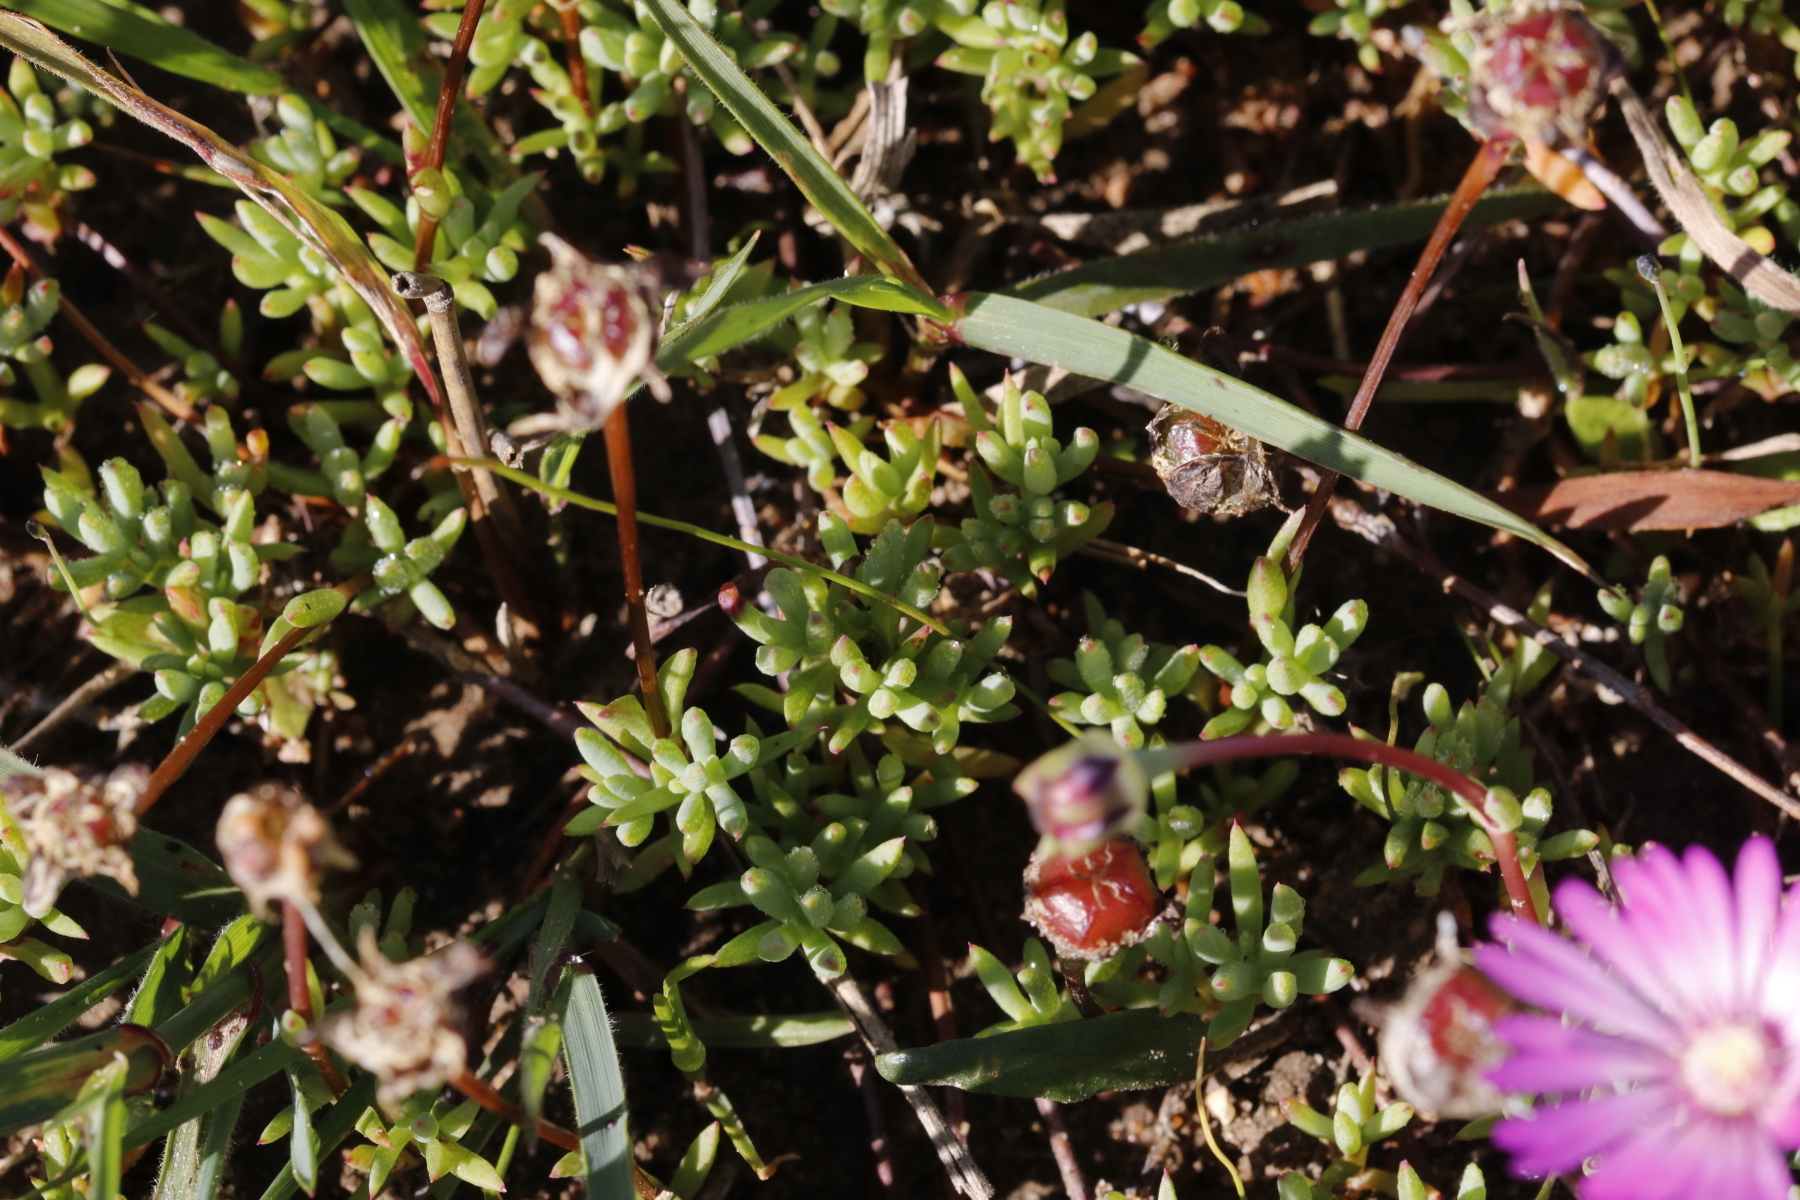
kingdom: Plantae
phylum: Tracheophyta
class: Magnoliopsida
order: Caryophyllales
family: Aizoaceae
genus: Lampranthus
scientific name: Lampranthus peacockiae
